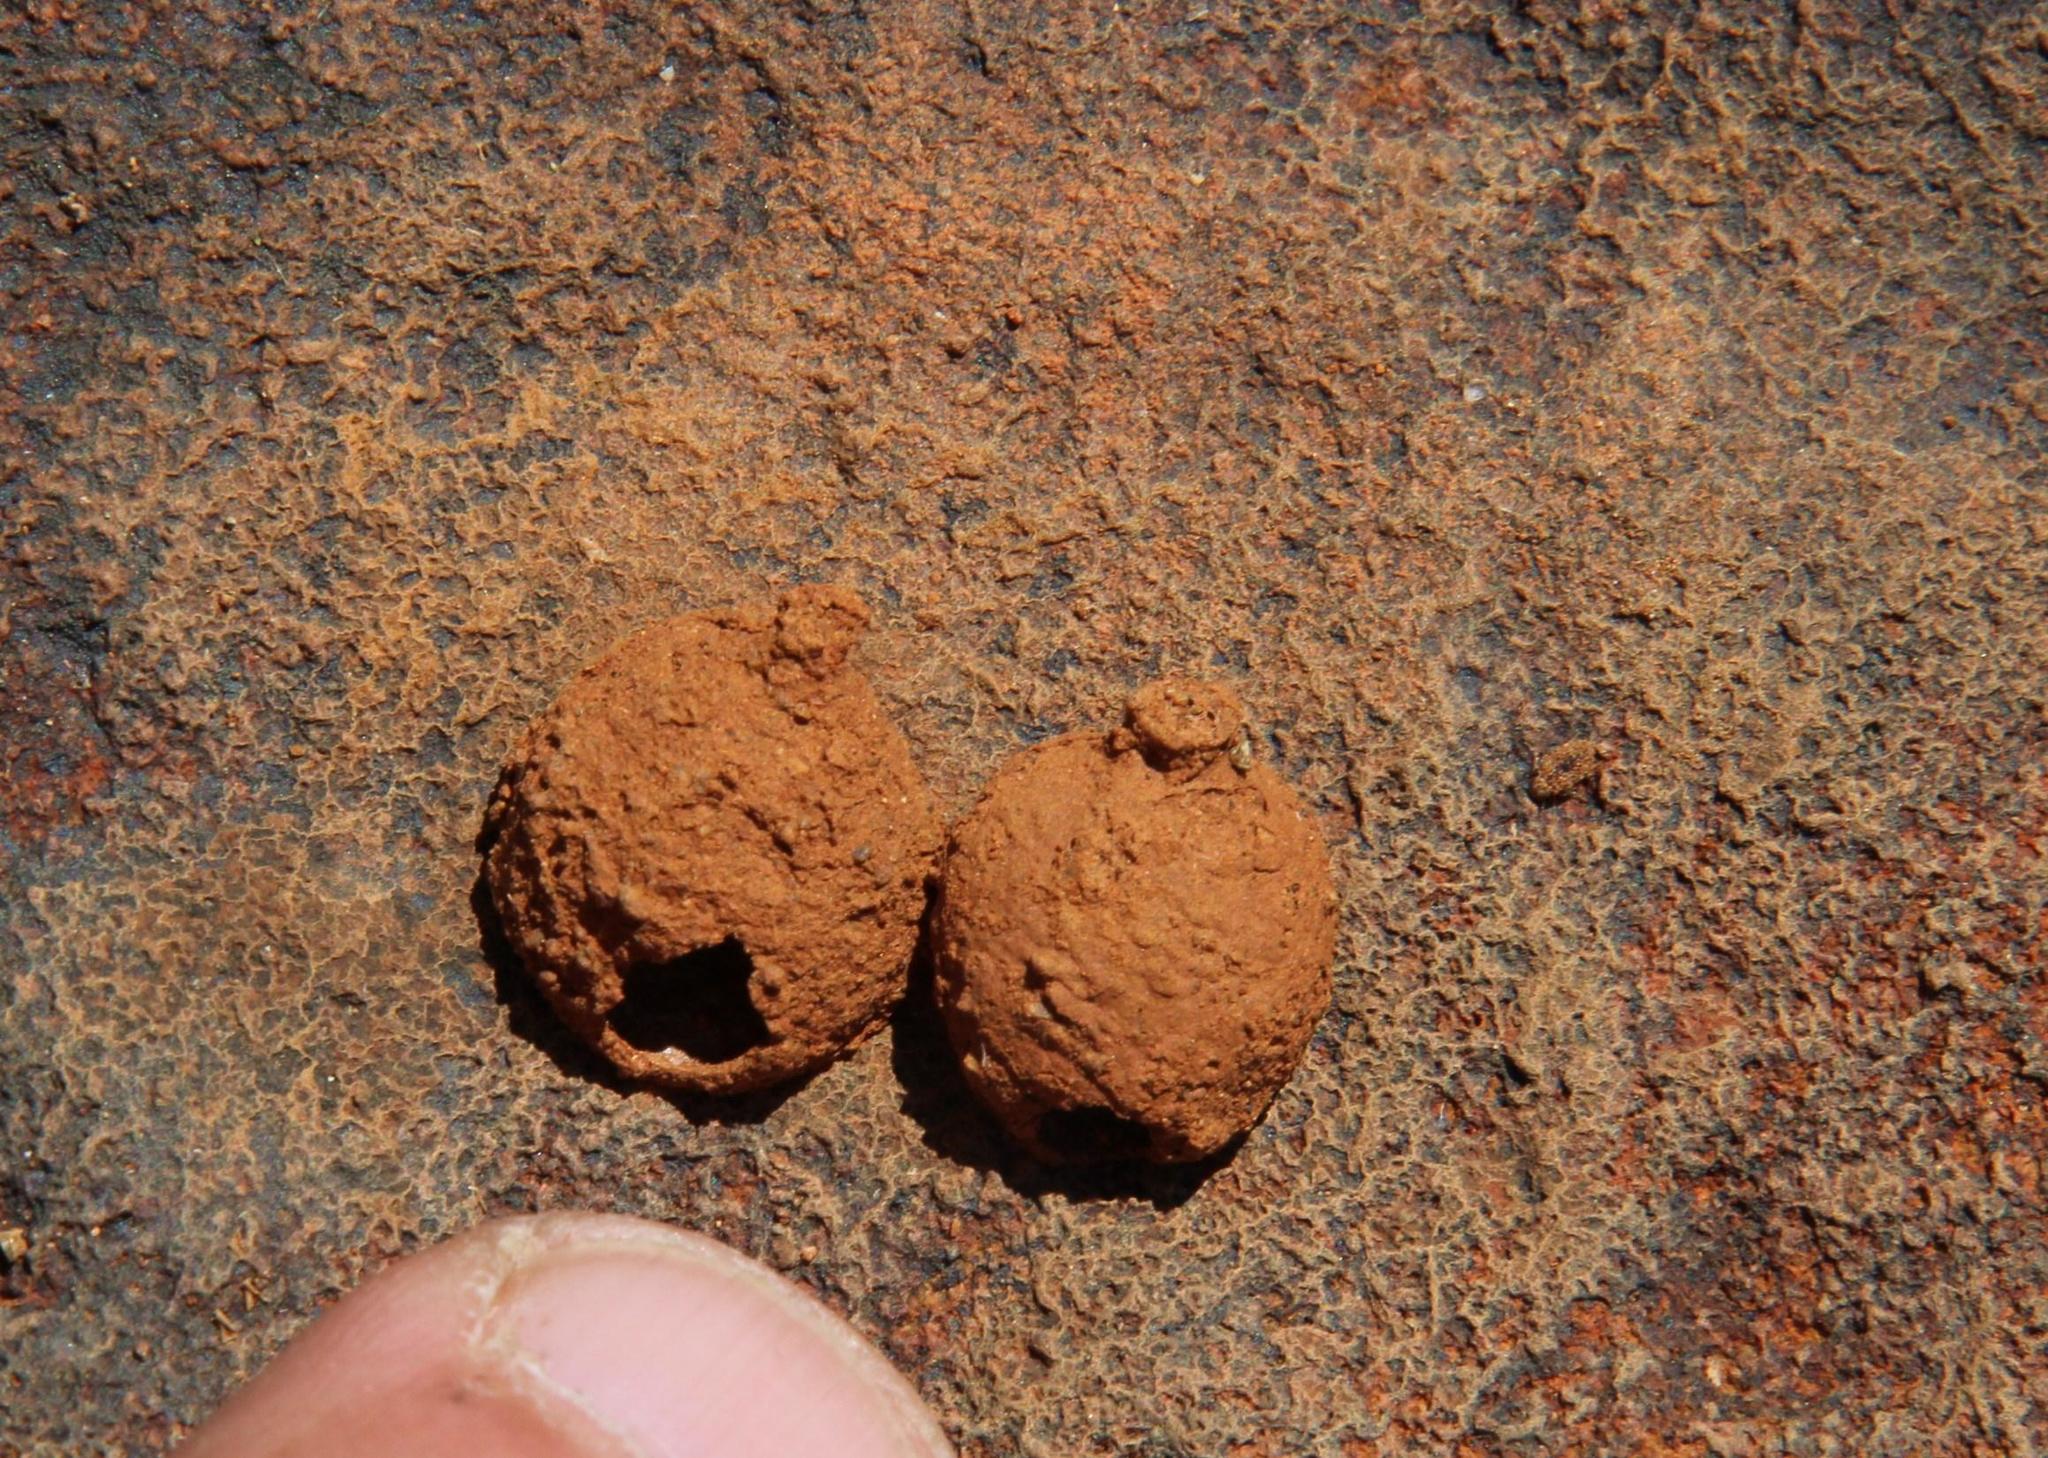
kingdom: Animalia
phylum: Arthropoda
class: Insecta
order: Hymenoptera
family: Eumenidae
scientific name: Eumenidae
